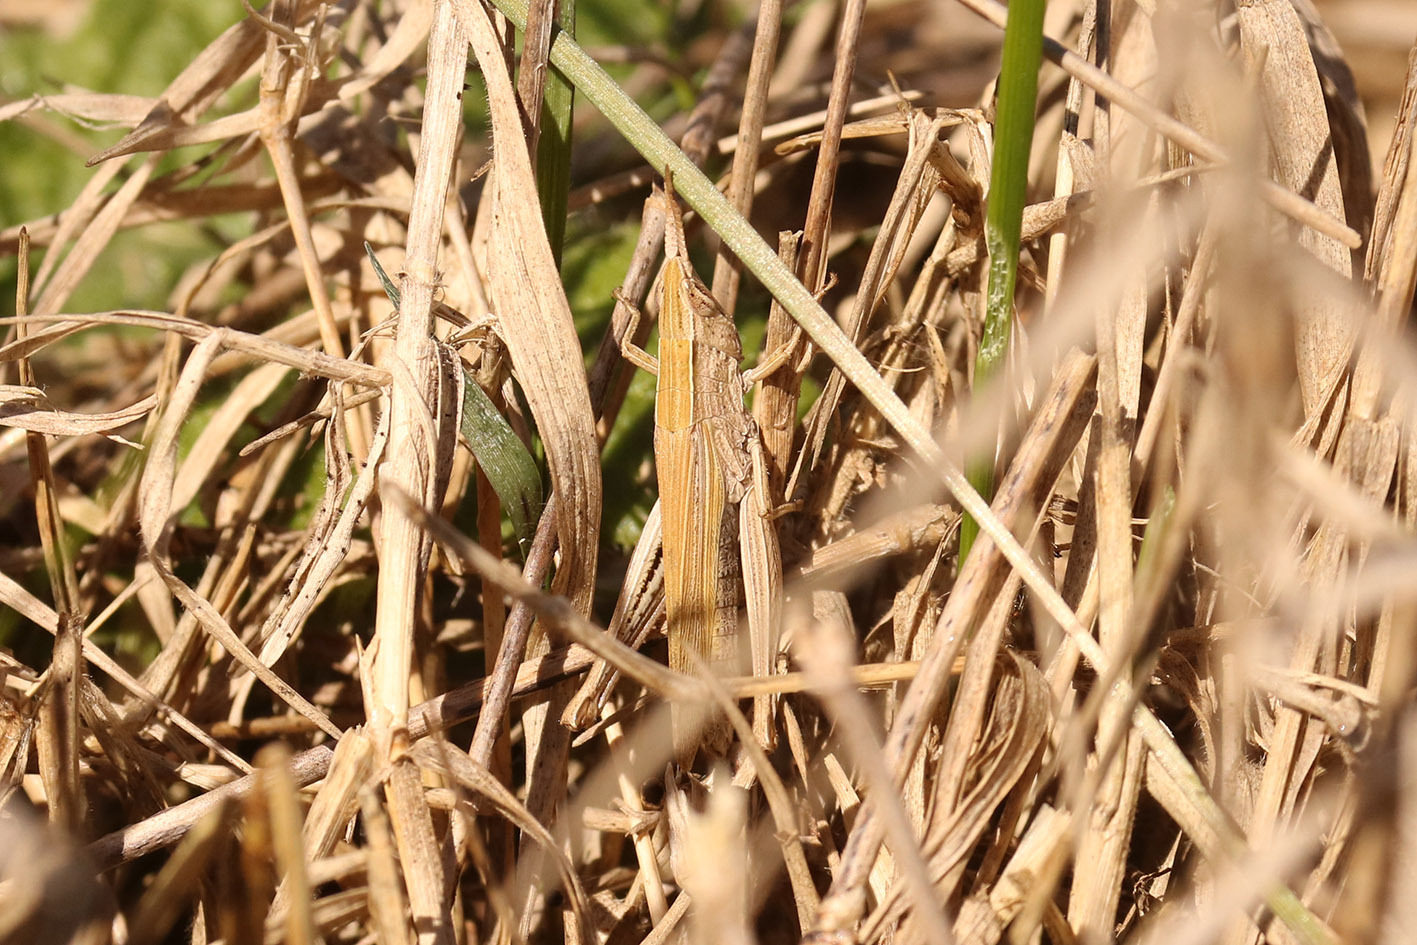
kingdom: Animalia
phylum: Arthropoda
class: Insecta
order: Orthoptera
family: Acrididae
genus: Laplatacris
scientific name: Laplatacris dispar
